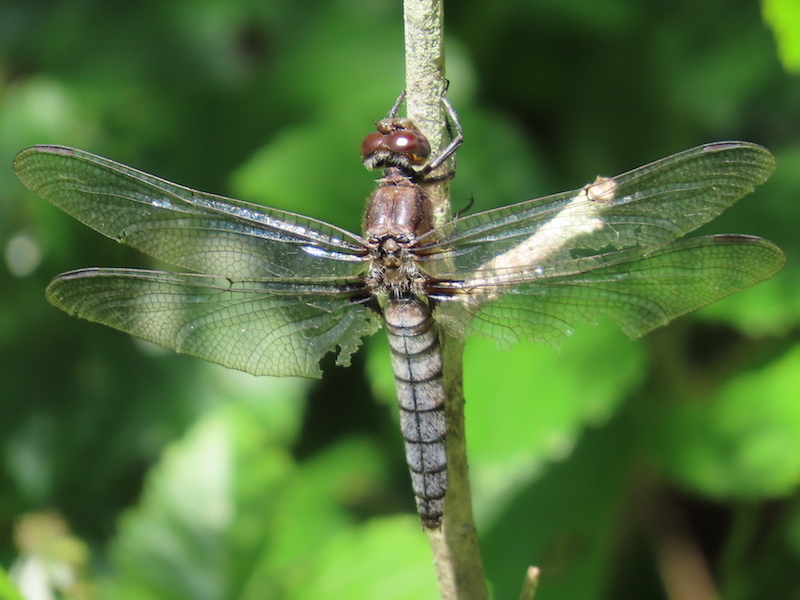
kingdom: Animalia
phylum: Arthropoda
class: Insecta
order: Odonata
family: Libellulidae
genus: Ladona
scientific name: Ladona julia
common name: Chalk-fronted corporal
